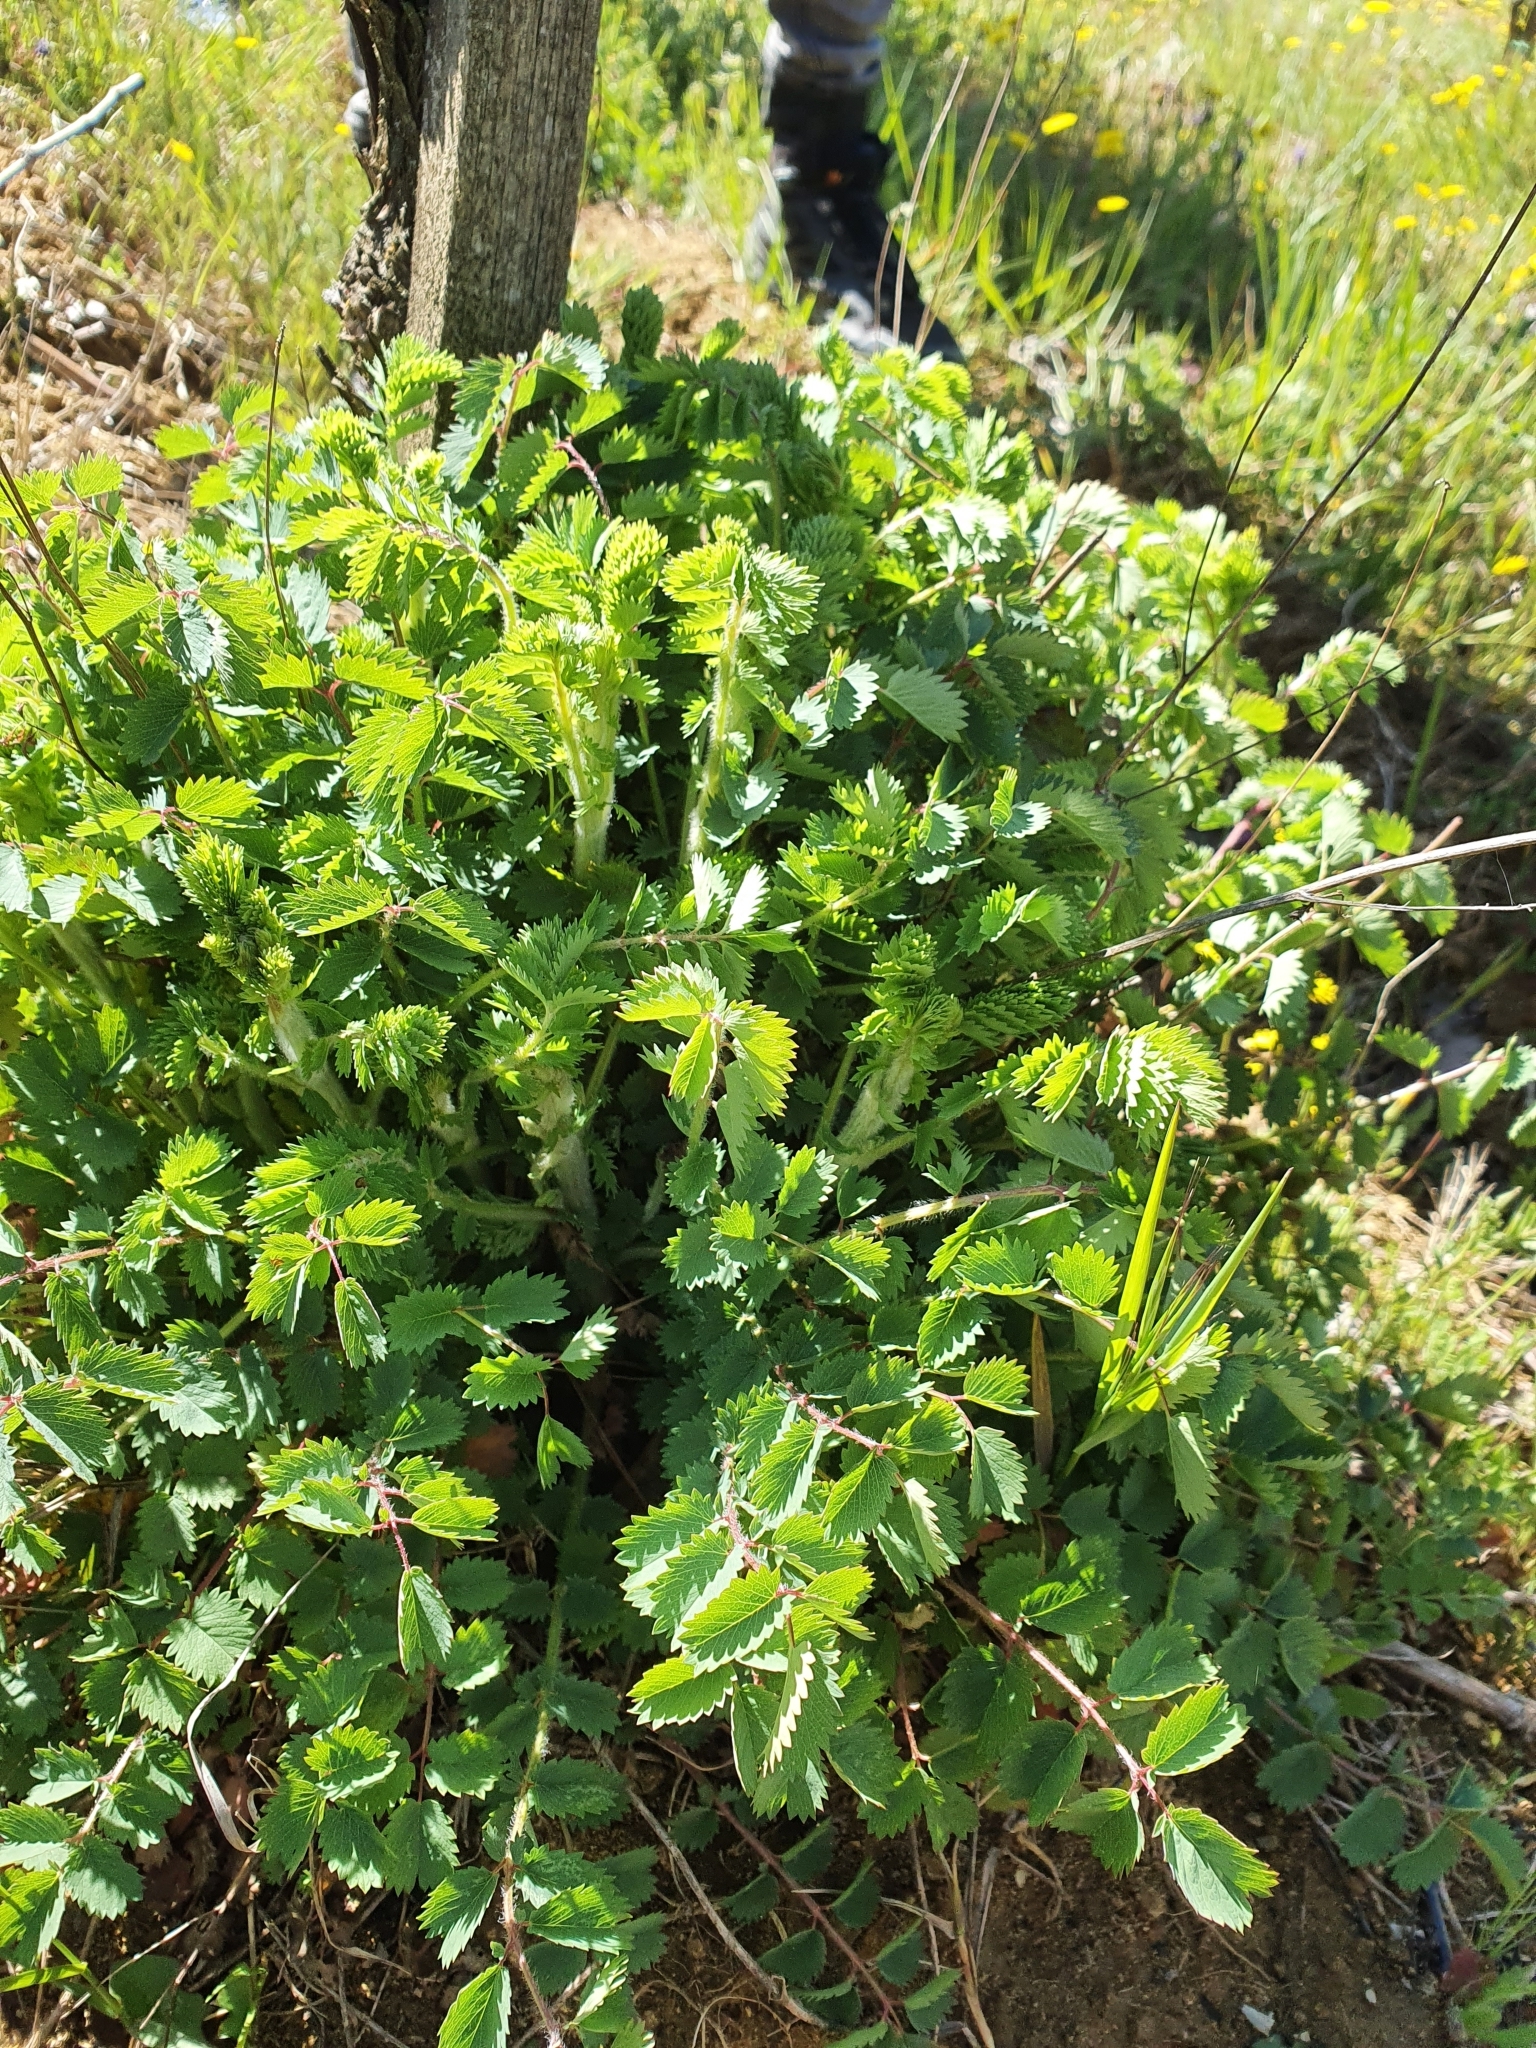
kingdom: Plantae
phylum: Tracheophyta
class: Magnoliopsida
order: Rosales
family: Rosaceae
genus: Poterium
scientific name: Poterium sanguisorba
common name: Salad burnet
